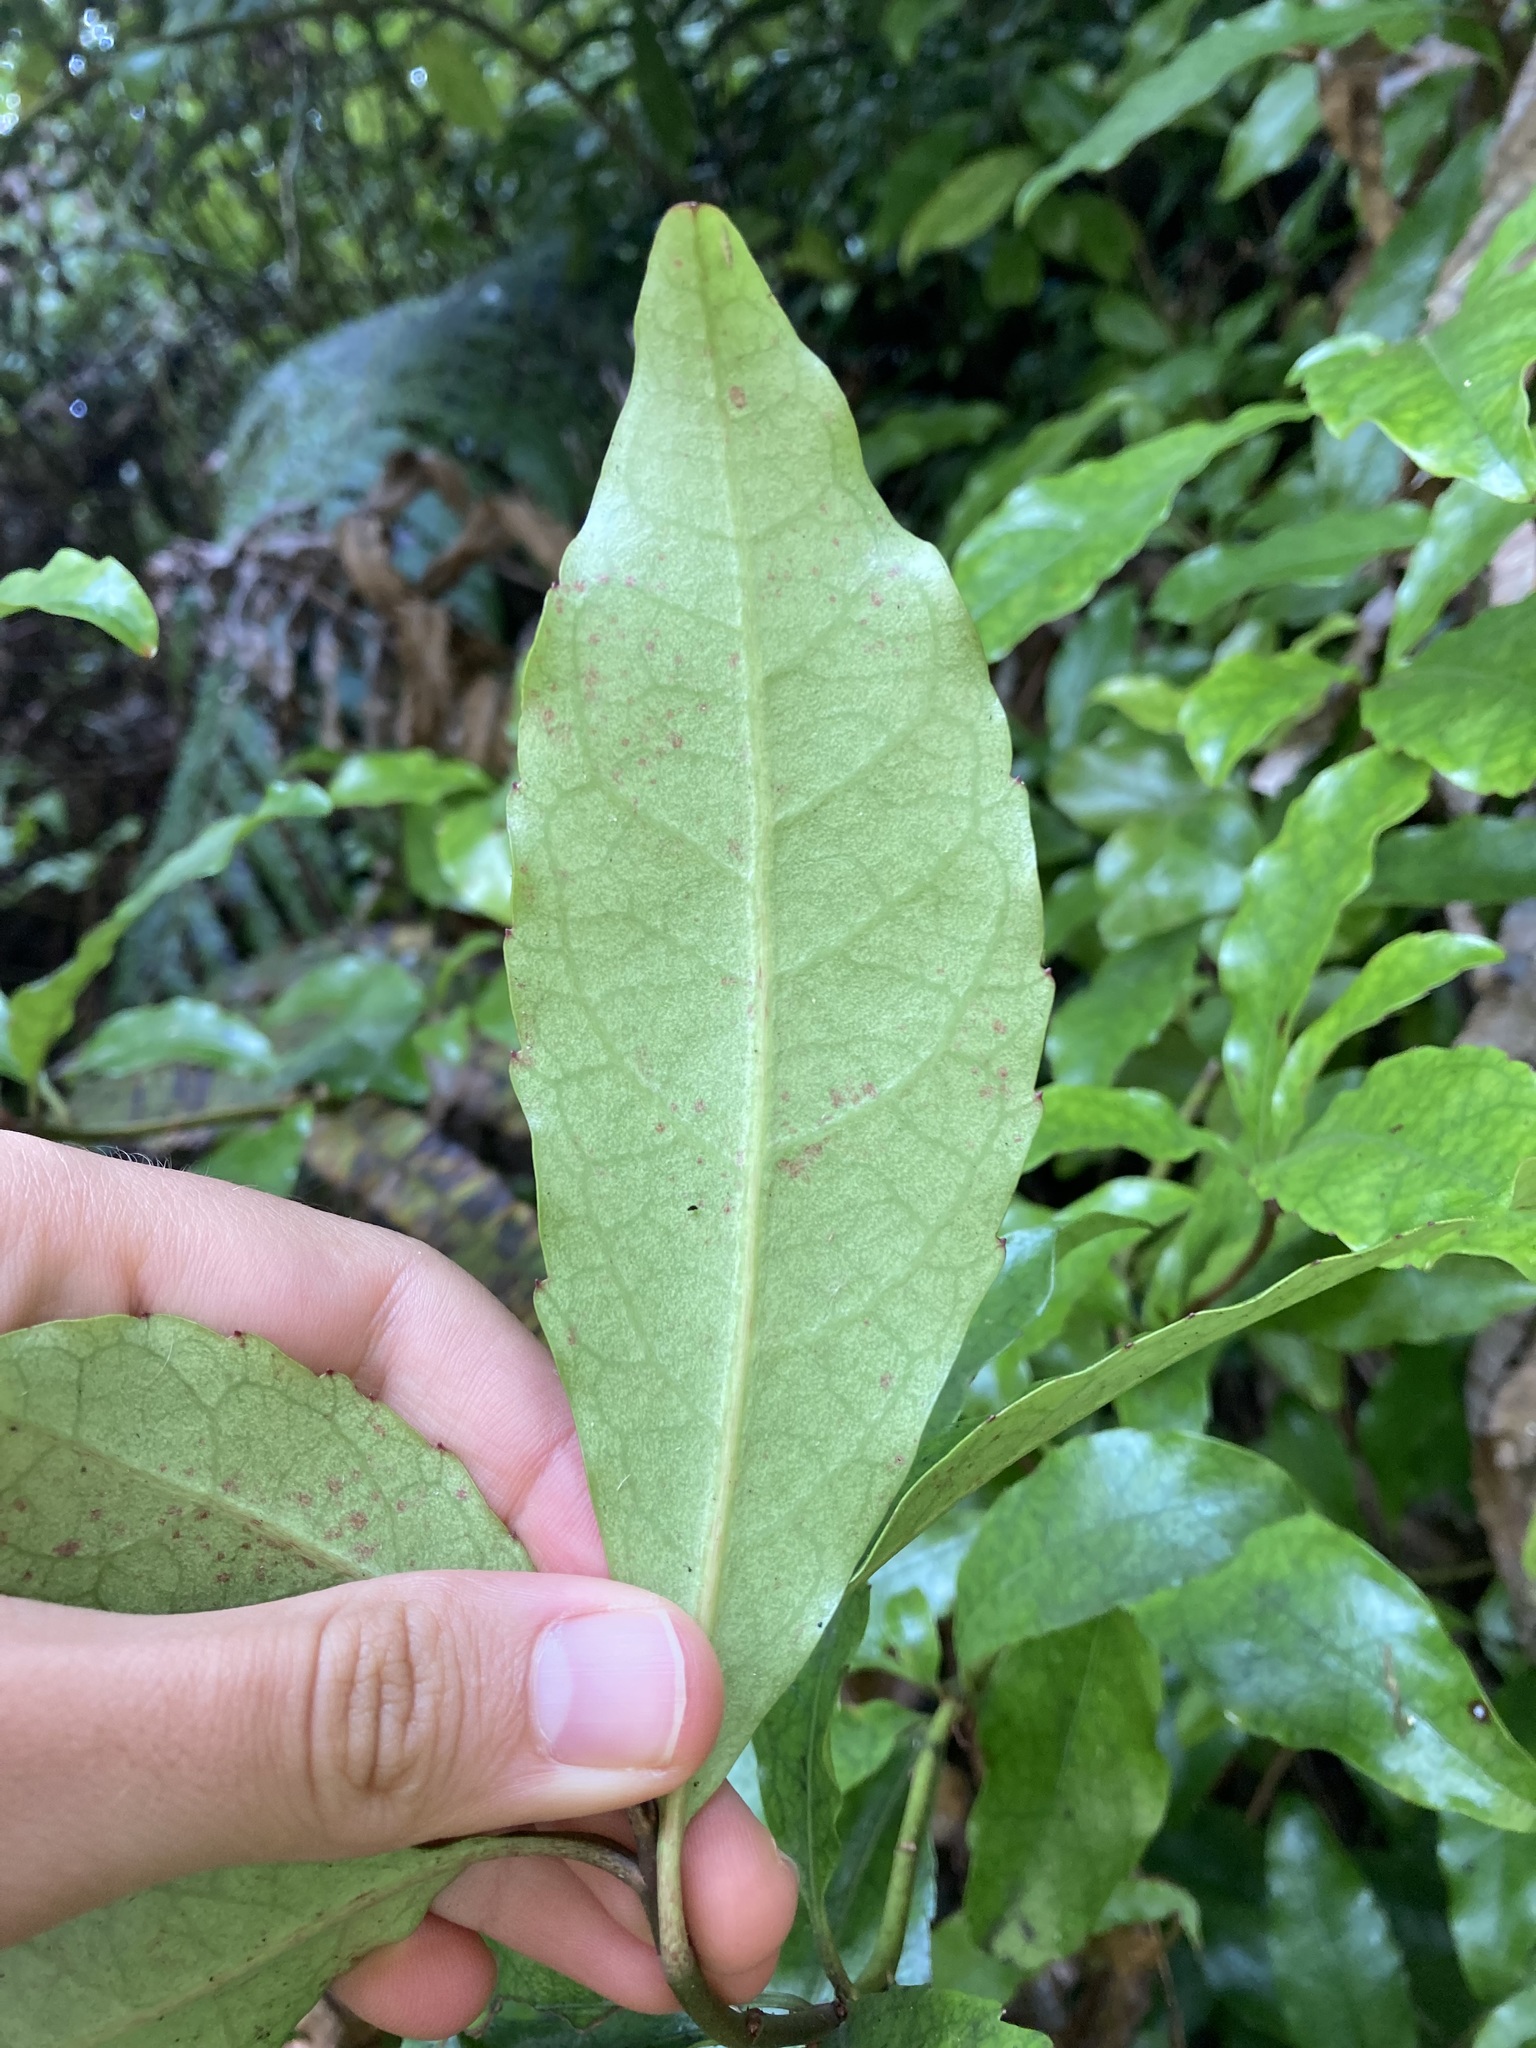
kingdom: Plantae
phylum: Tracheophyta
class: Magnoliopsida
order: Asterales
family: Alseuosmiaceae
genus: Alseuosmia
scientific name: Alseuosmia macrophylla
